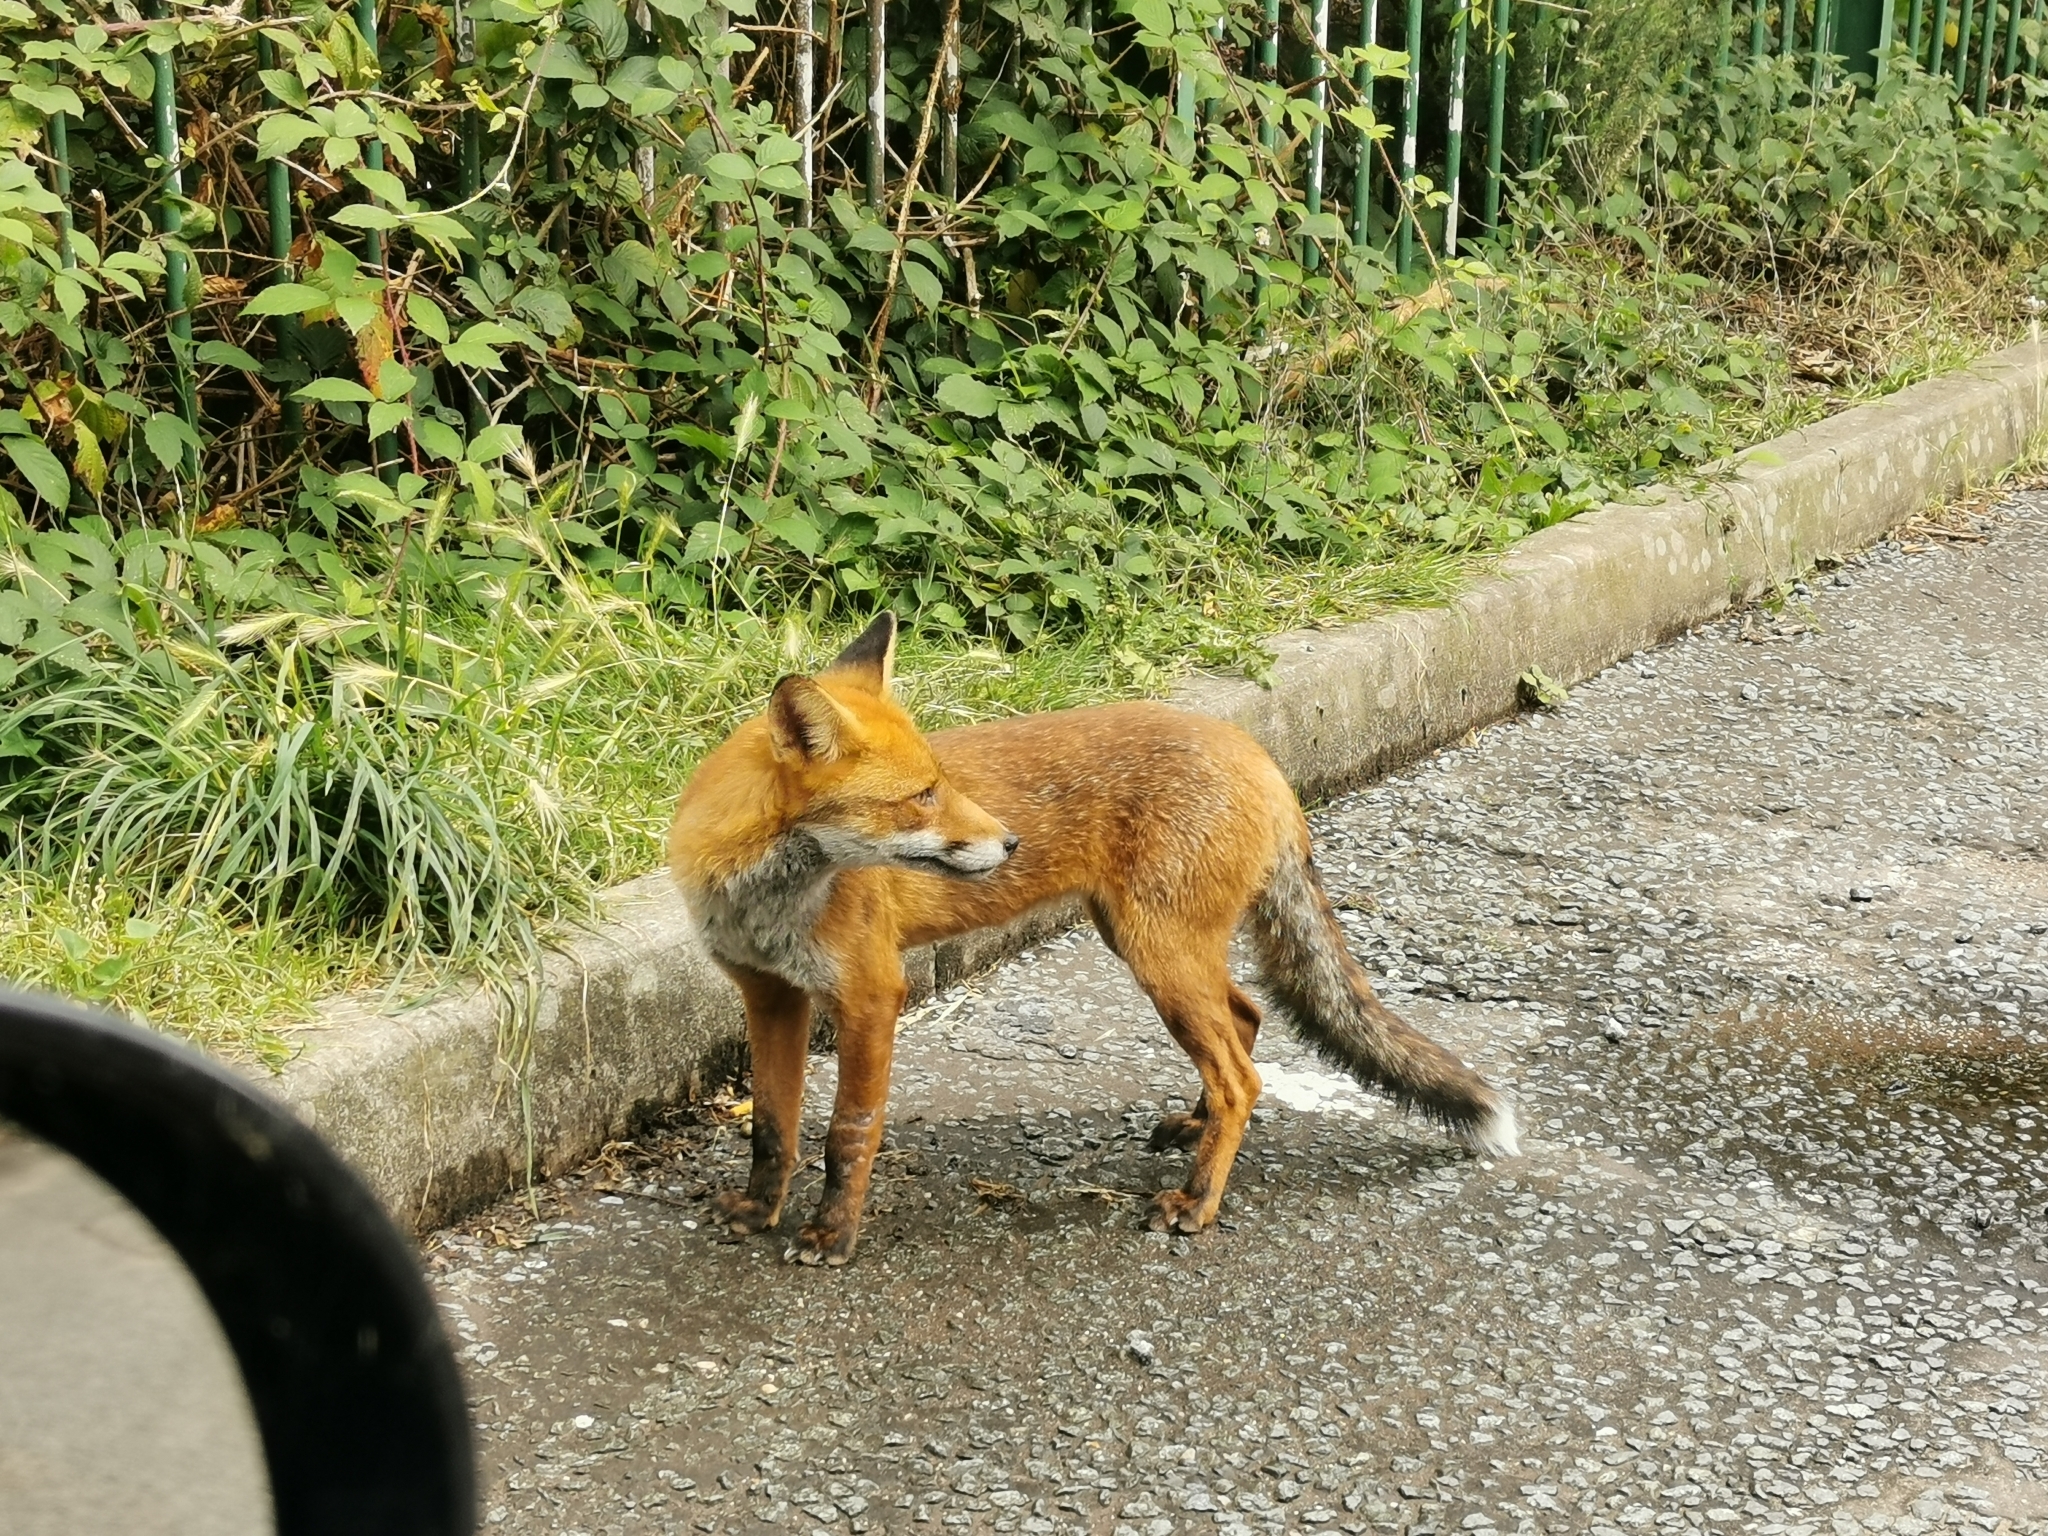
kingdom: Animalia
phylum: Chordata
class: Mammalia
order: Carnivora
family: Canidae
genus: Vulpes
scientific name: Vulpes vulpes
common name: Red fox
